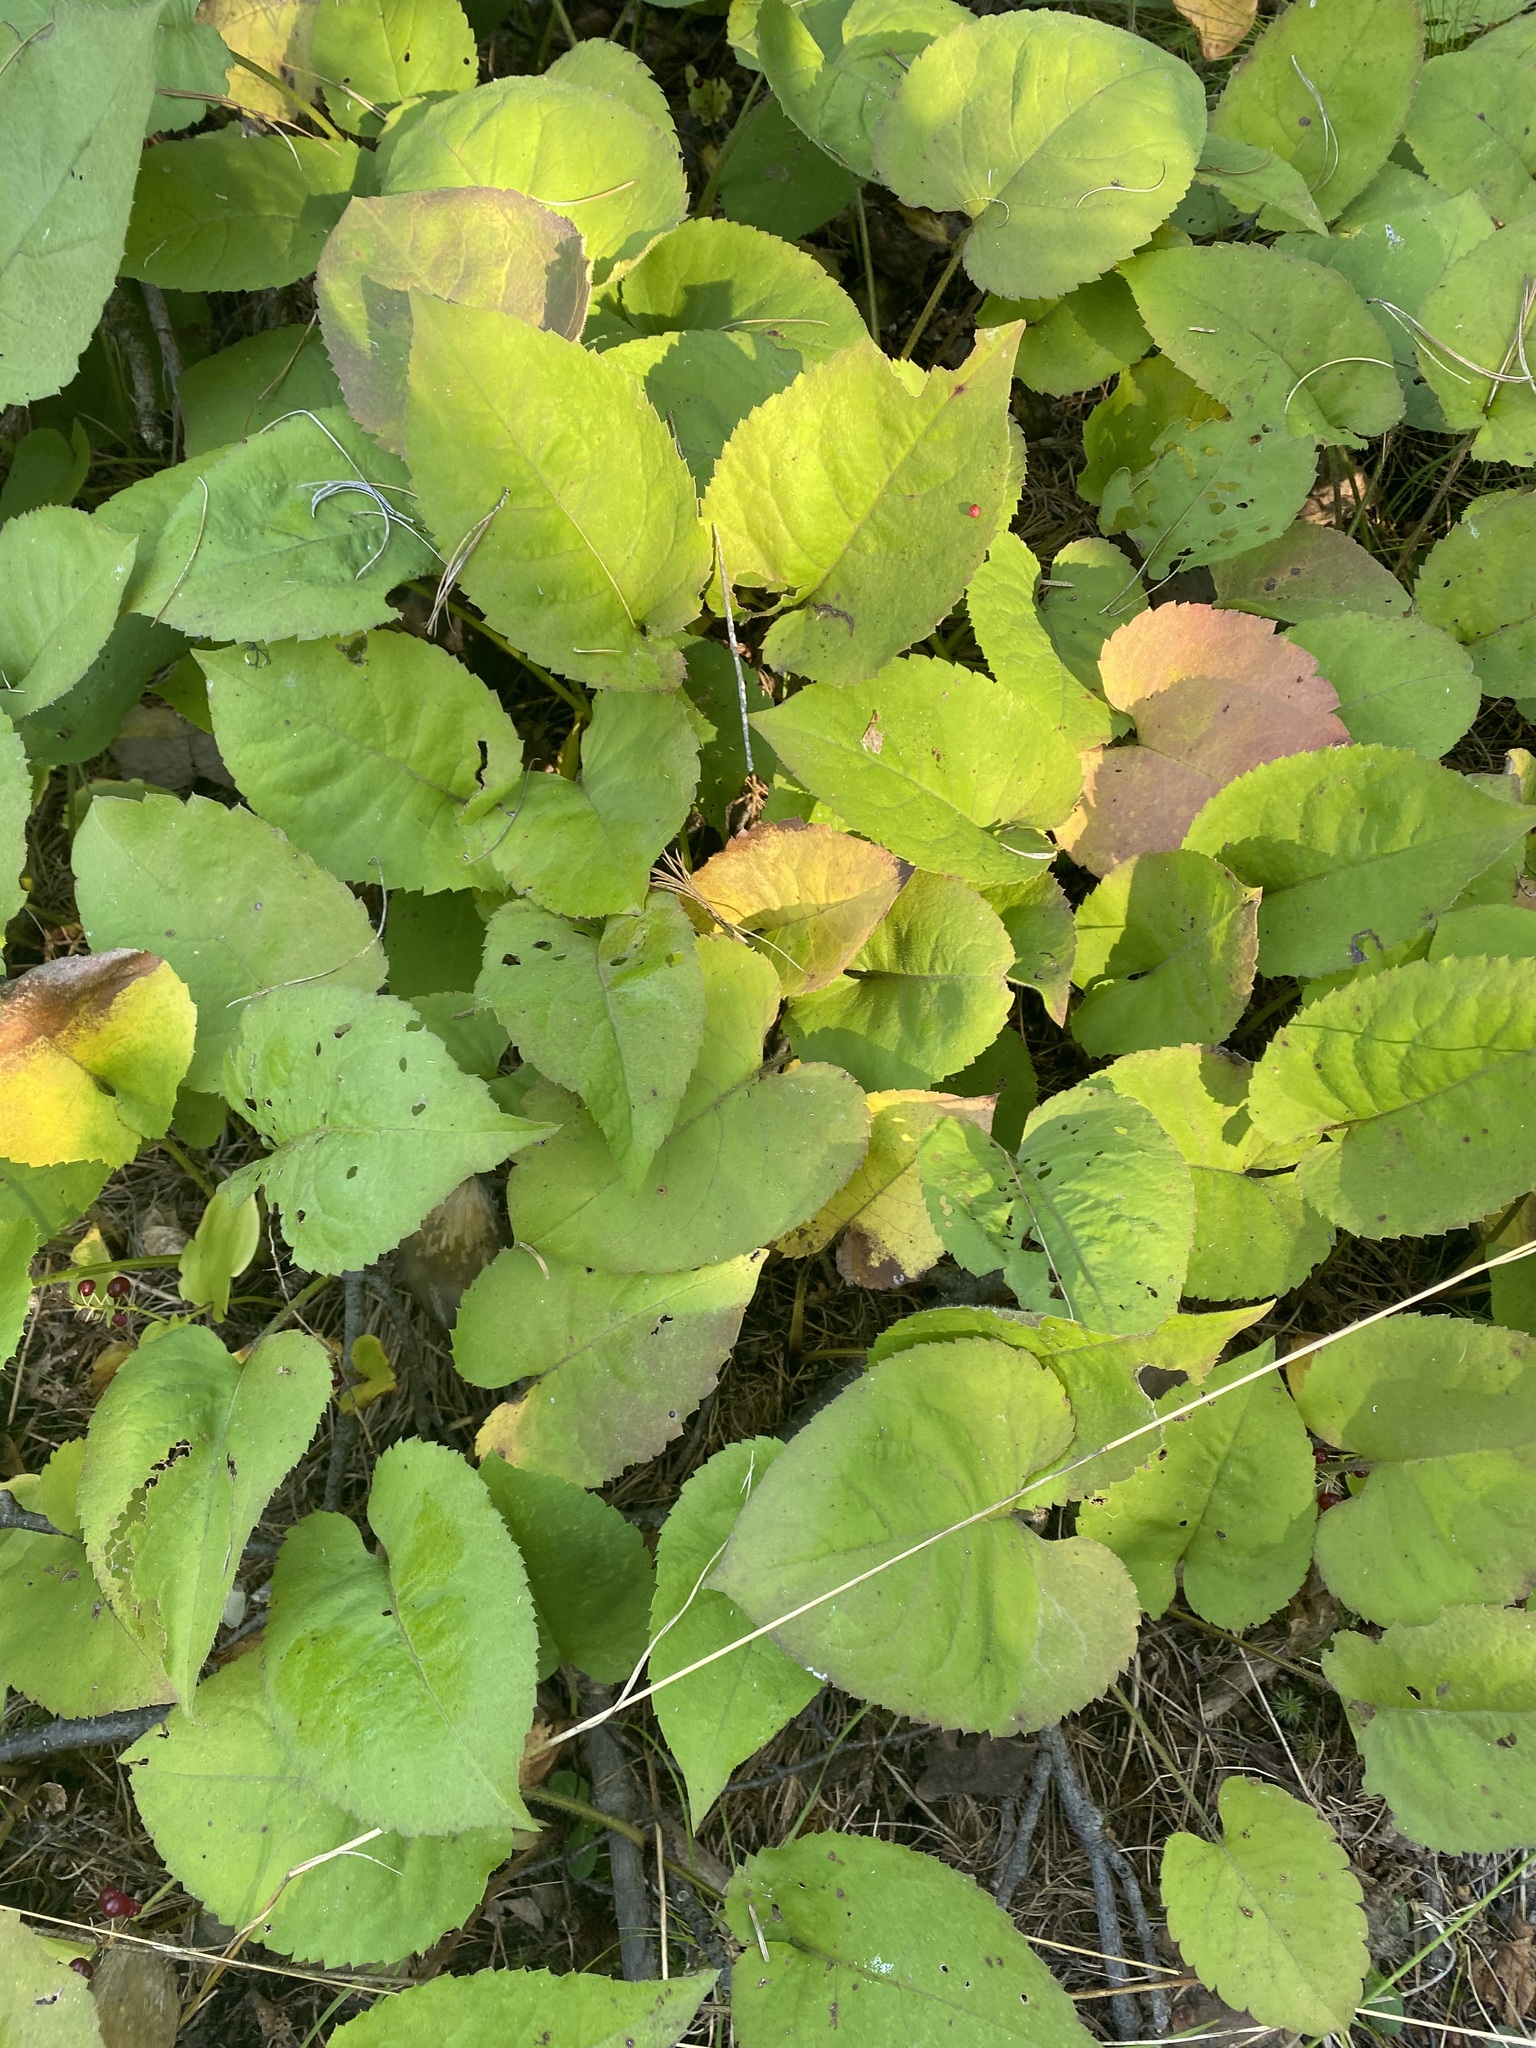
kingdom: Plantae
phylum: Tracheophyta
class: Magnoliopsida
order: Asterales
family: Asteraceae
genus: Eurybia
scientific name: Eurybia macrophylla
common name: Big-leaved aster
